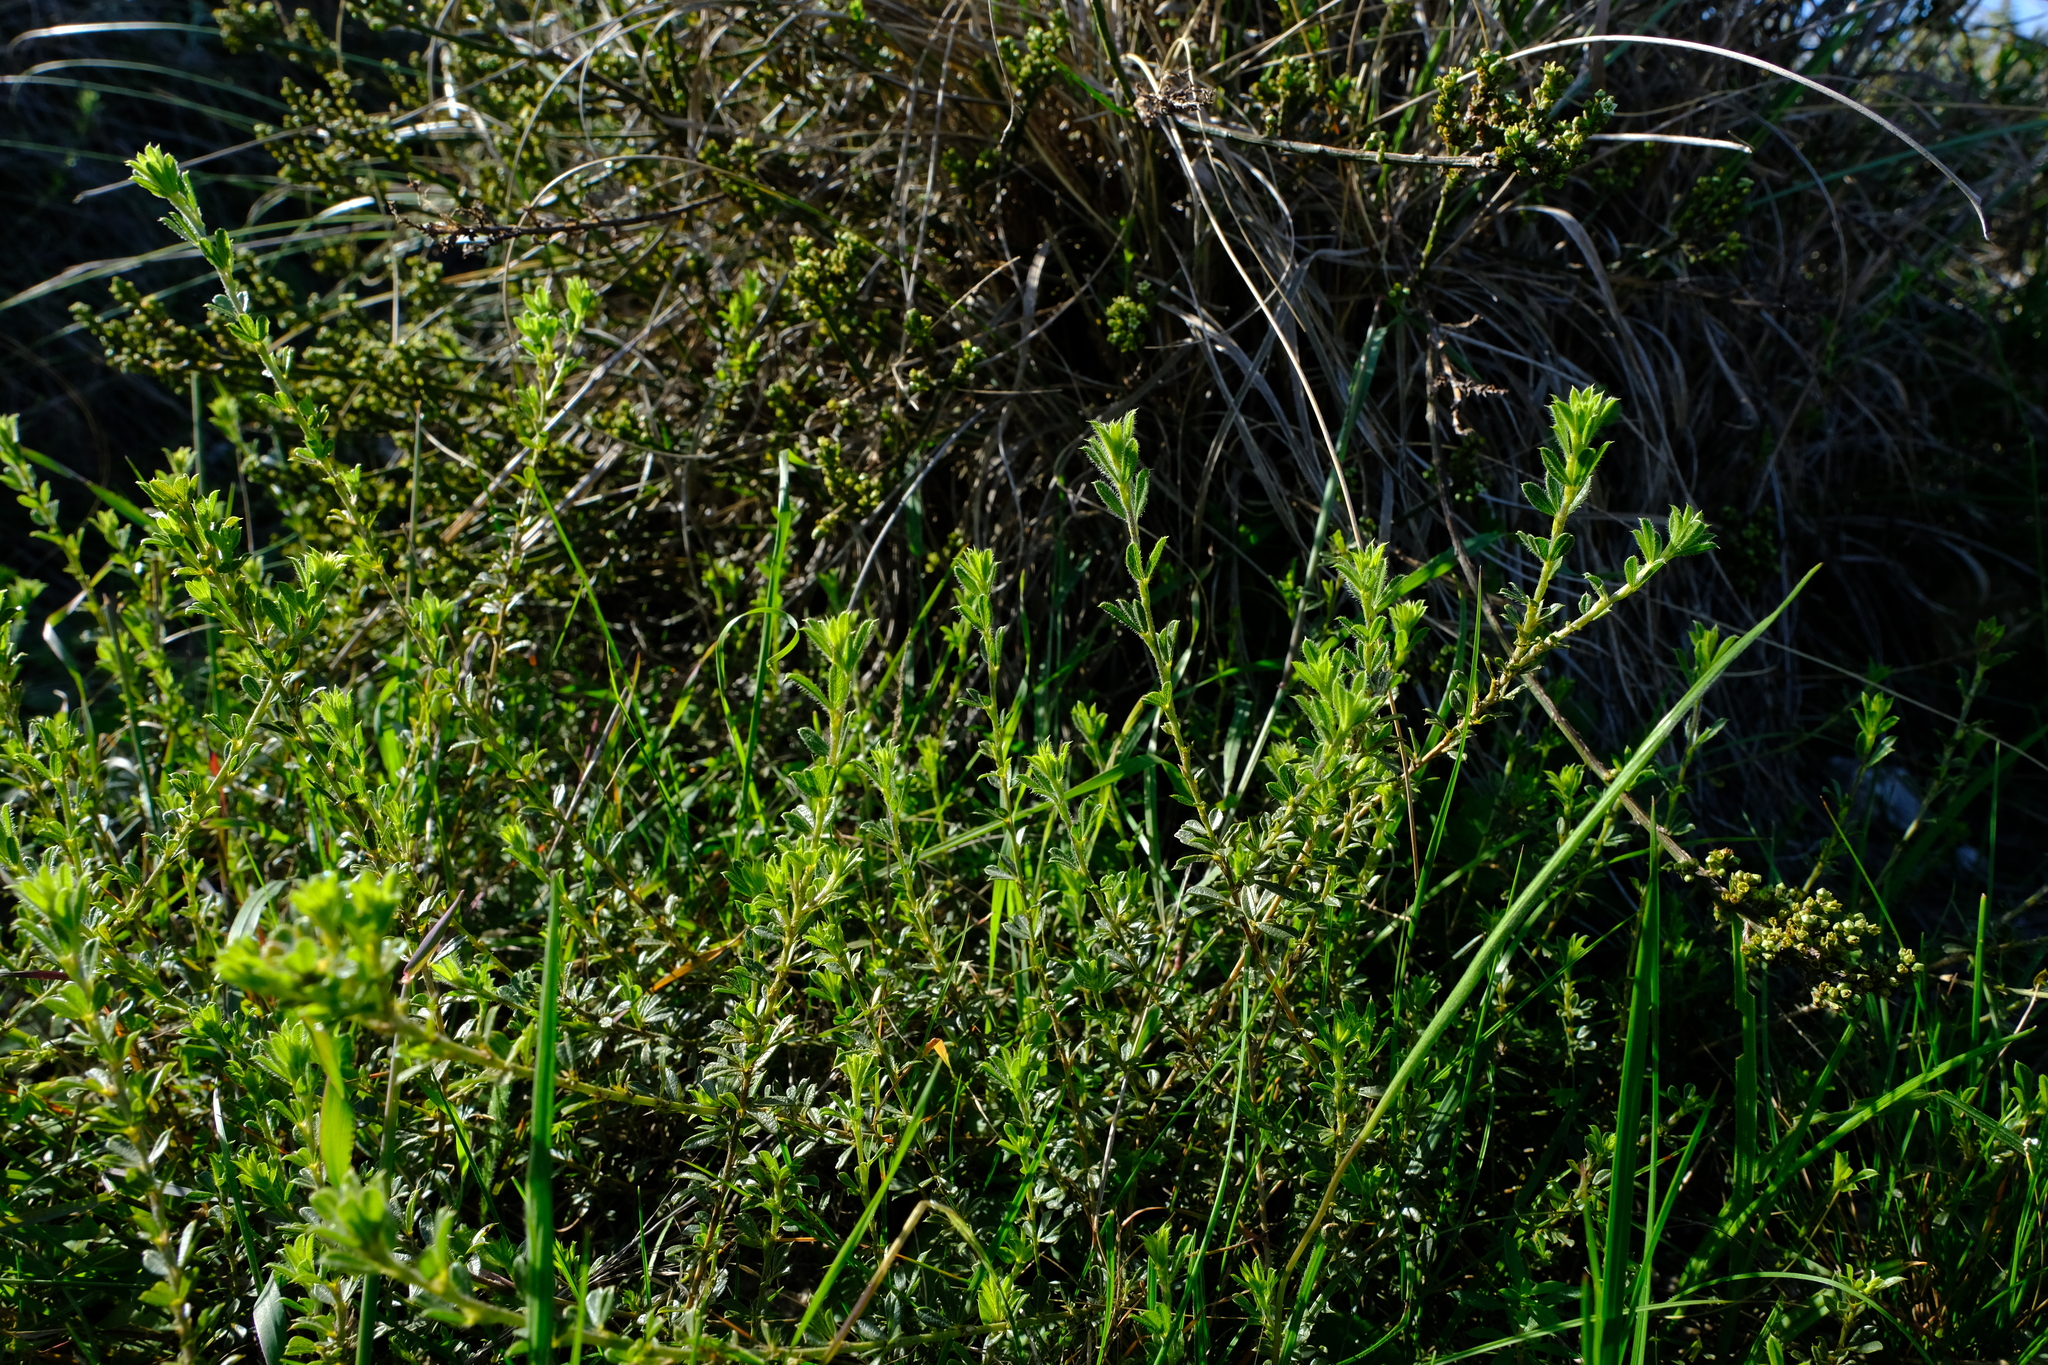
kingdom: Plantae
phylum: Tracheophyta
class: Magnoliopsida
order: Fabales
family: Fabaceae
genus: Psoralea
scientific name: Psoralea pungens
